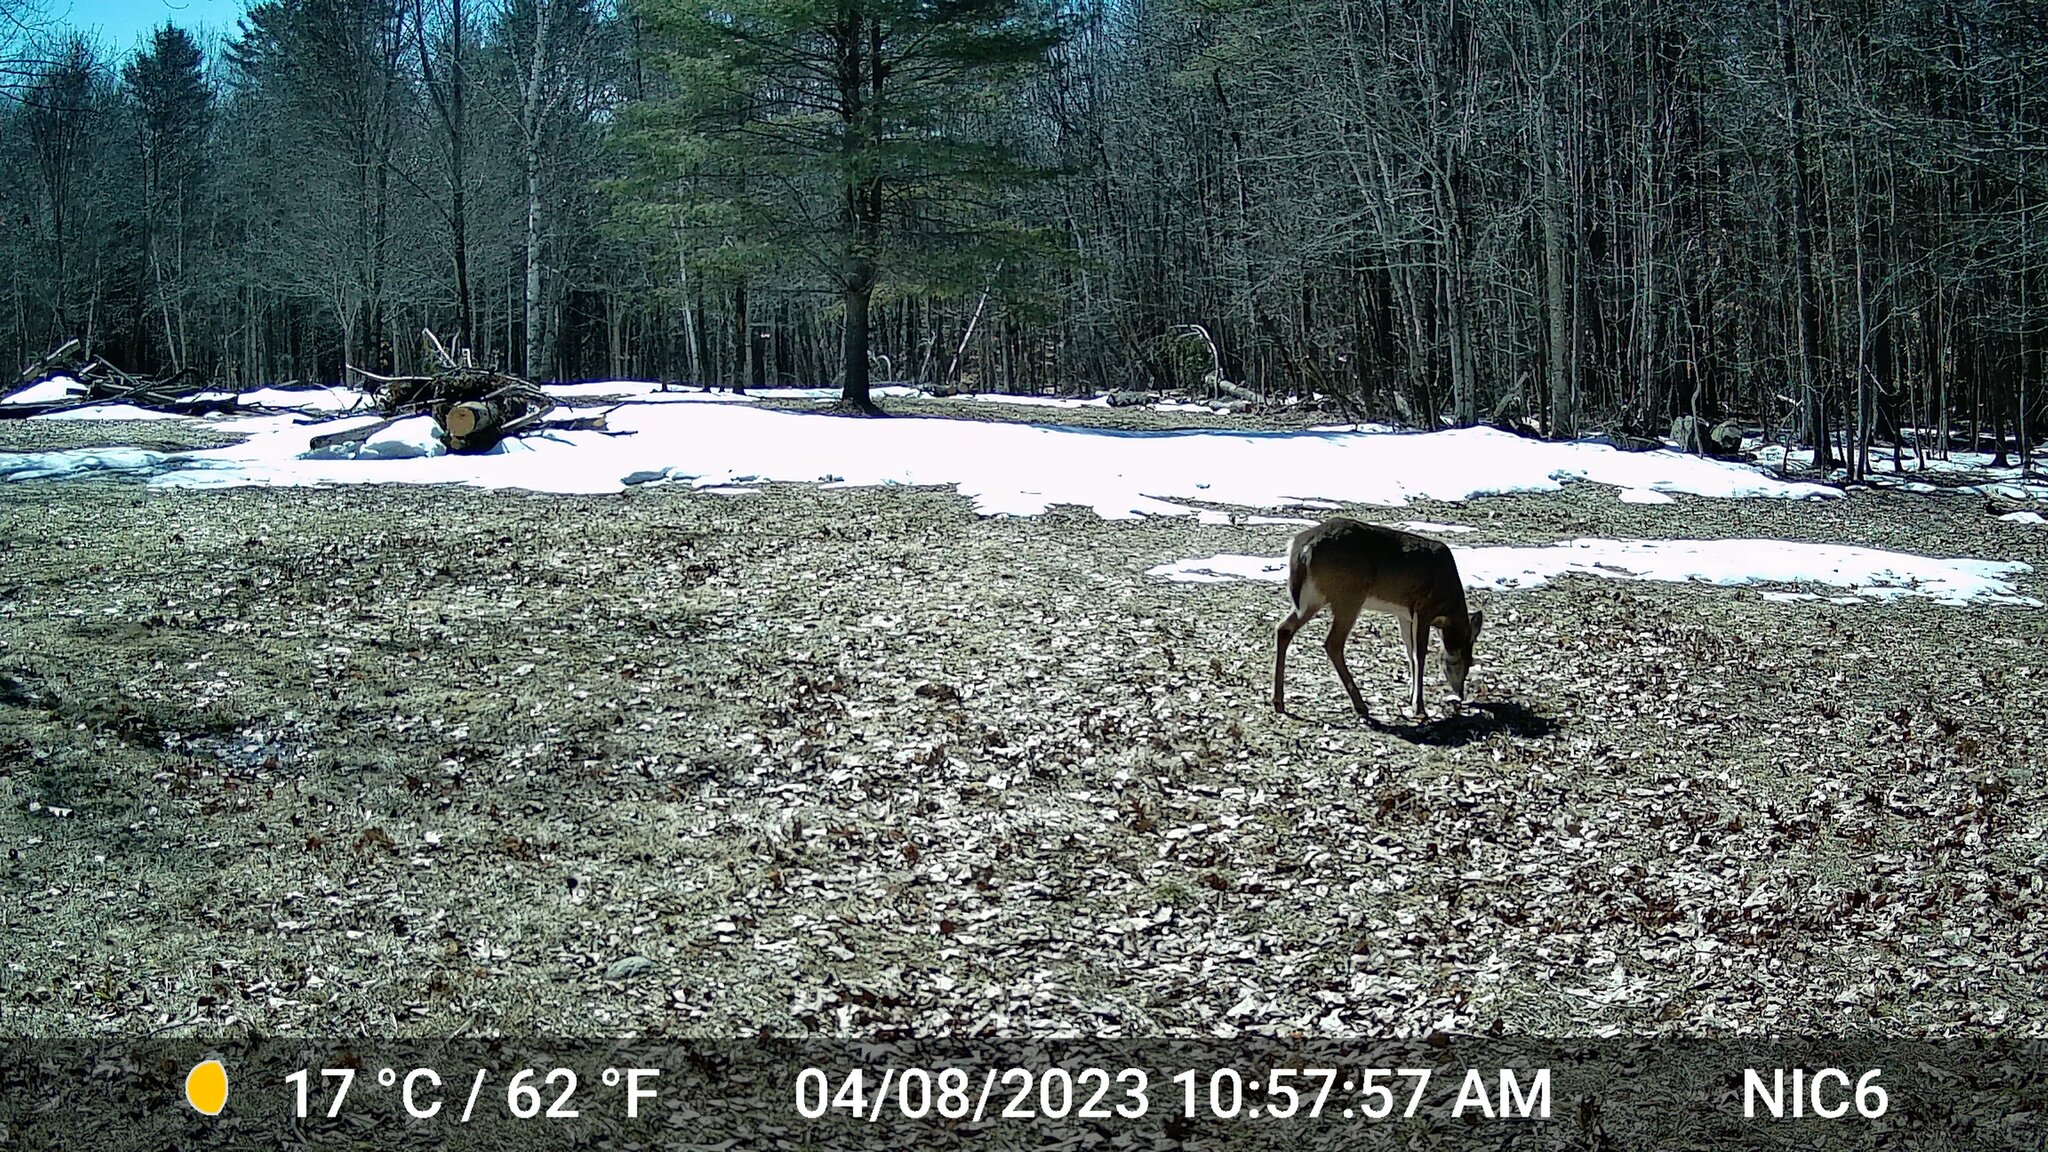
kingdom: Animalia
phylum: Chordata
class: Mammalia
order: Artiodactyla
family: Cervidae
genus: Odocoileus
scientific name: Odocoileus virginianus
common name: White-tailed deer
